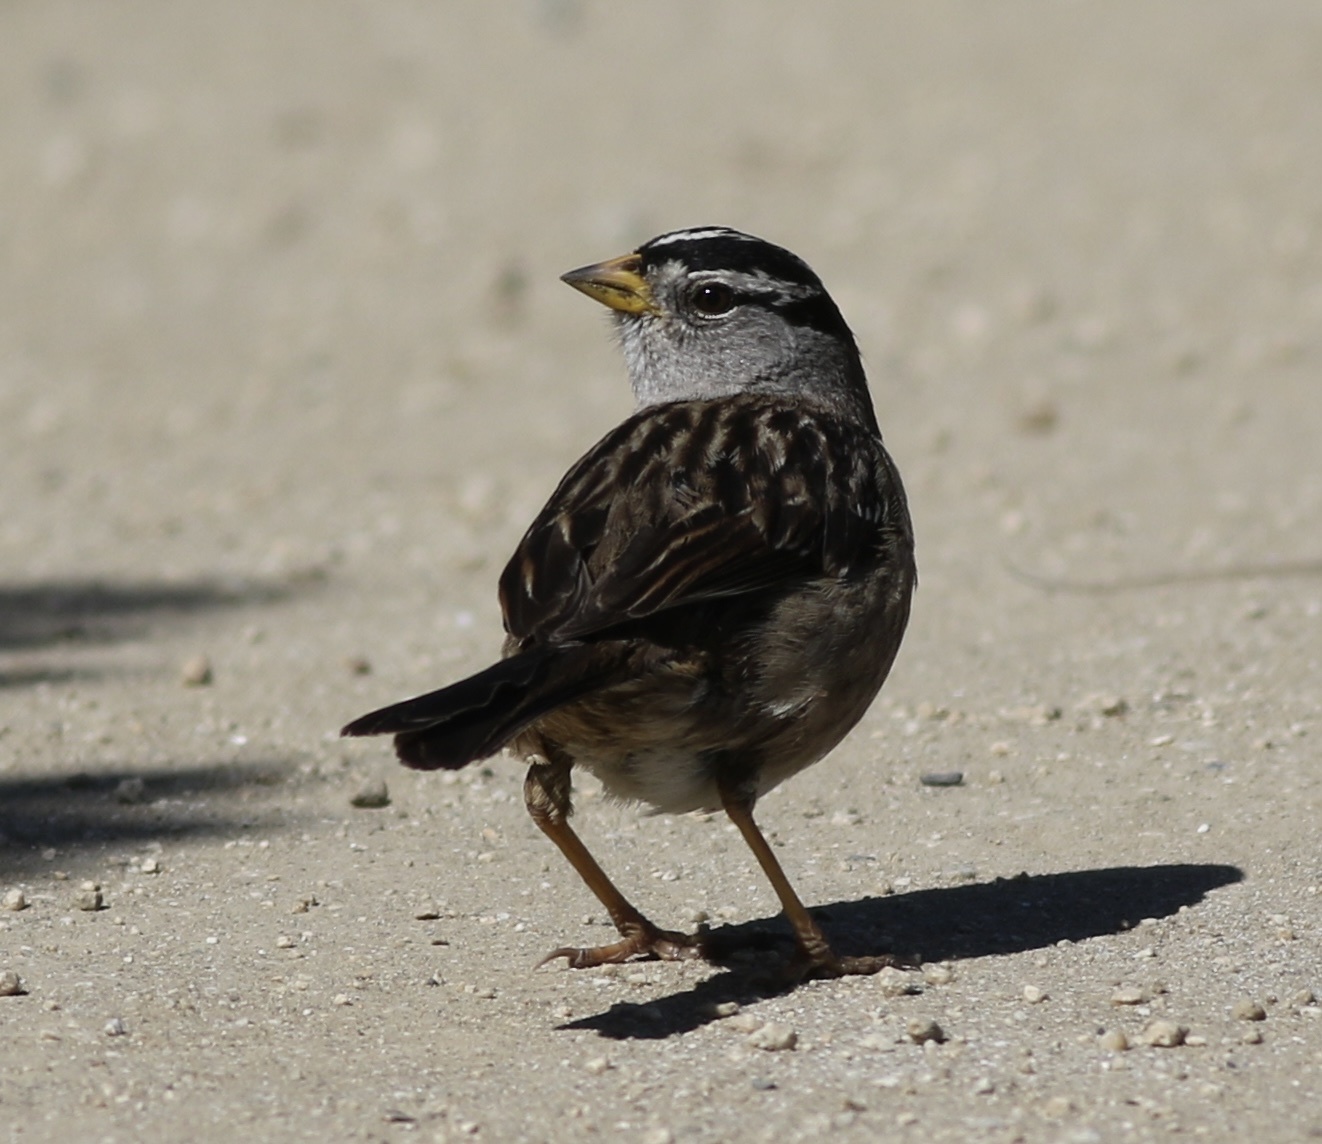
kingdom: Animalia
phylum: Chordata
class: Aves
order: Passeriformes
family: Passerellidae
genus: Zonotrichia
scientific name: Zonotrichia leucophrys
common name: White-crowned sparrow
